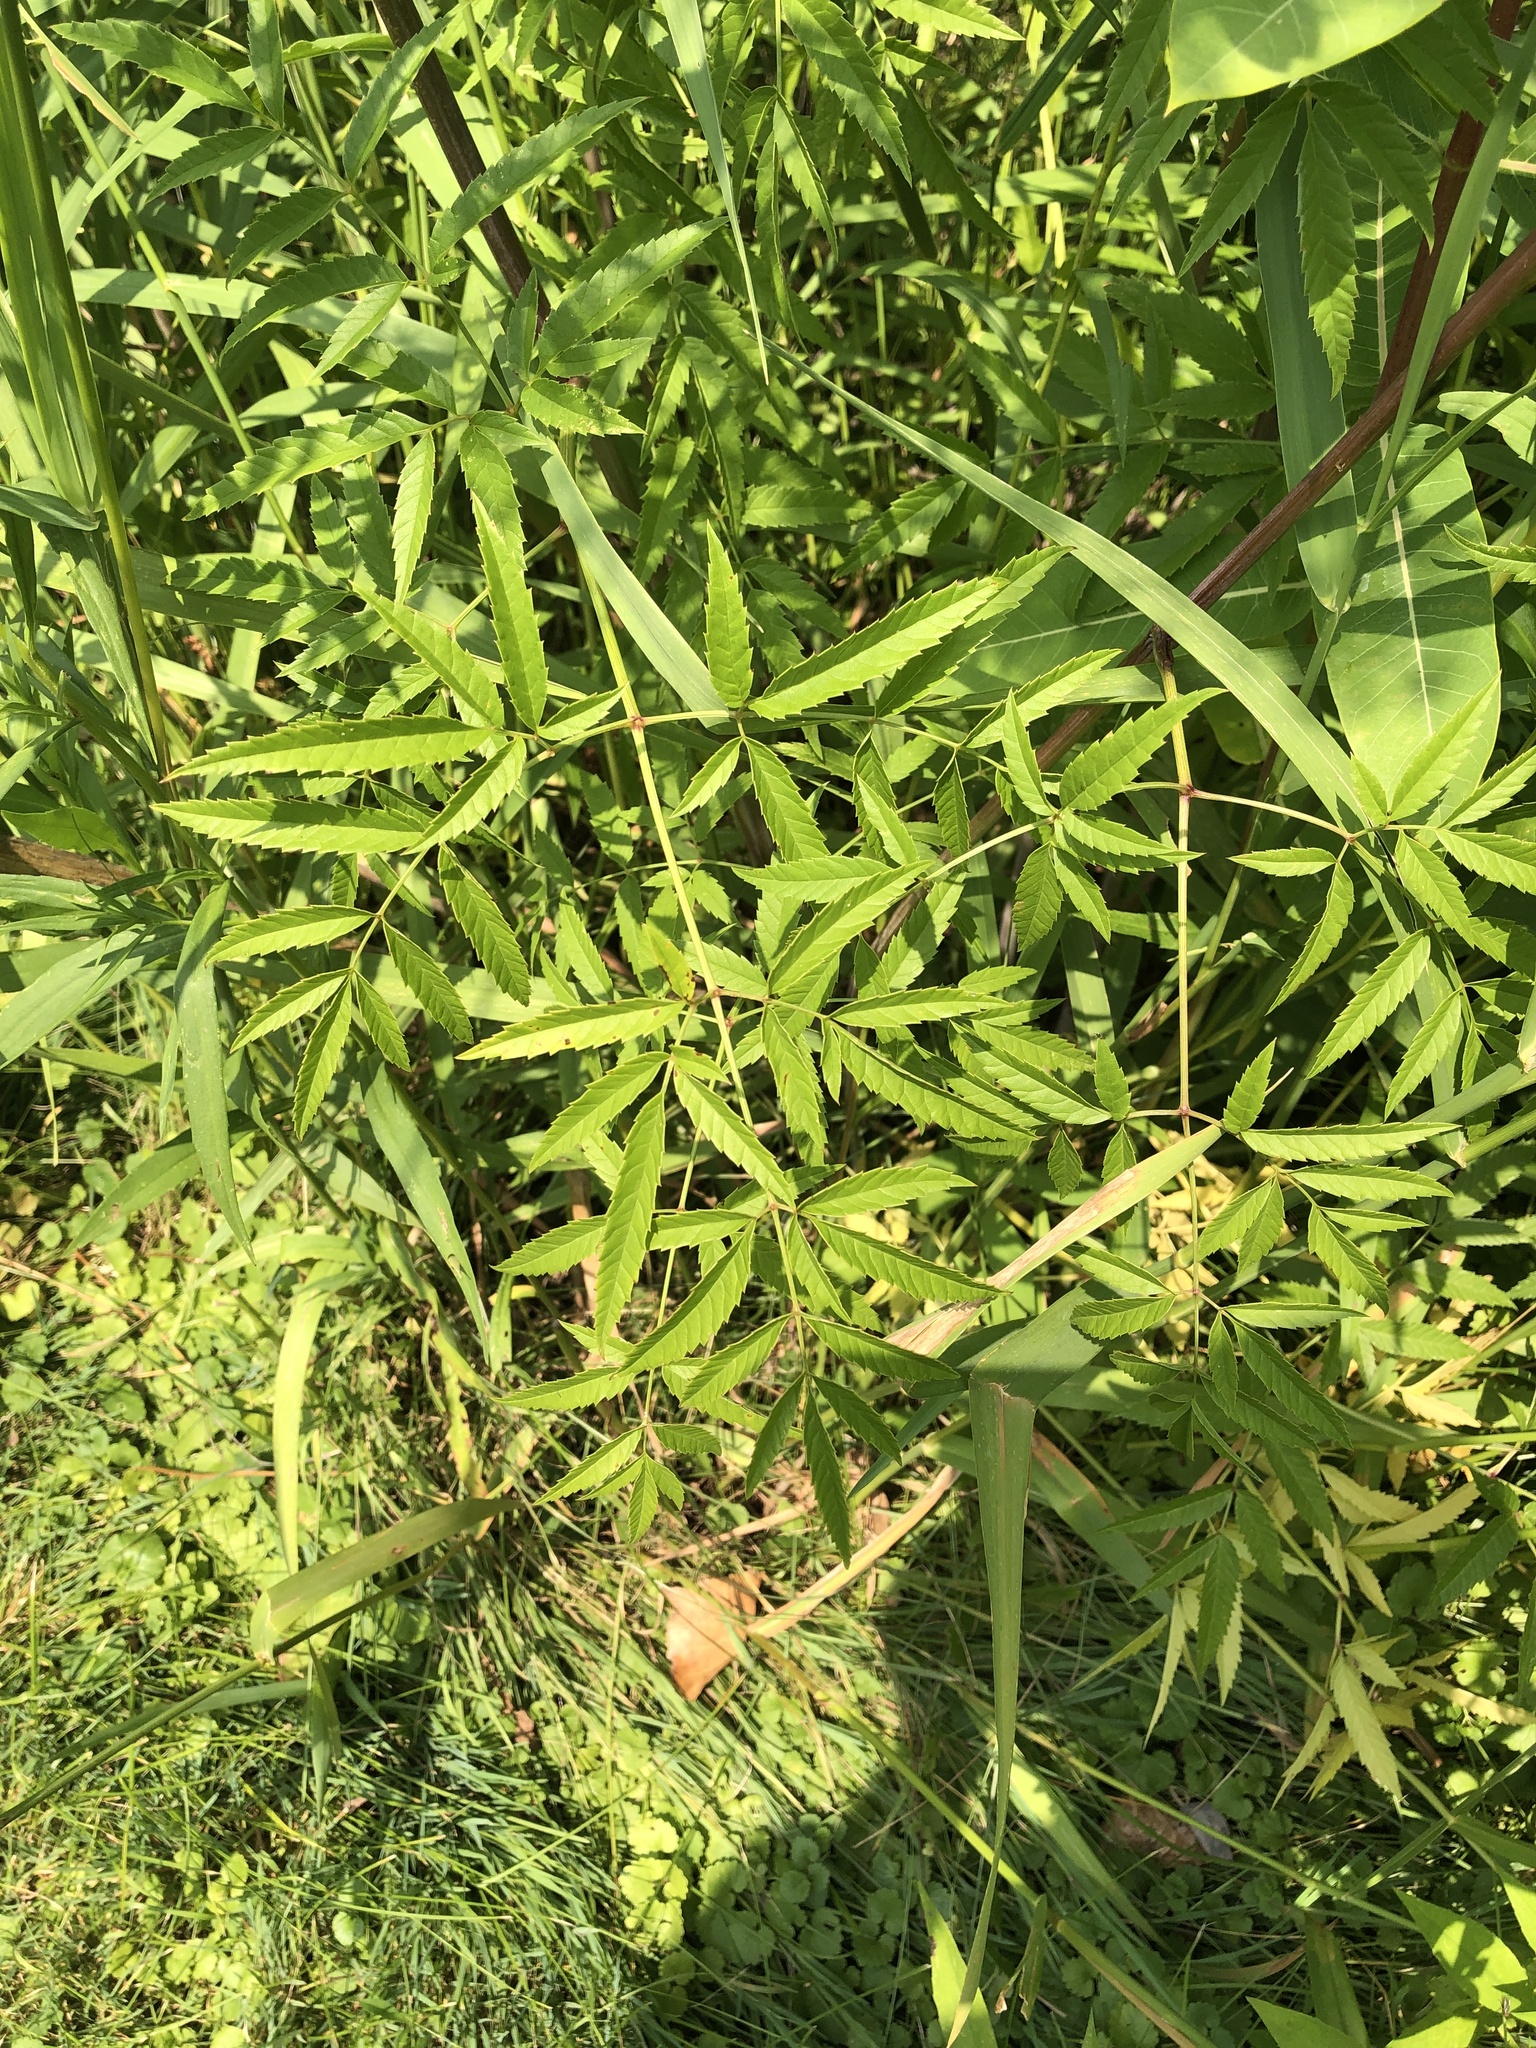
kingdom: Plantae
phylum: Tracheophyta
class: Magnoliopsida
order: Apiales
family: Apiaceae
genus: Cicuta
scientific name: Cicuta maculata
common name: Spotted cowbane
